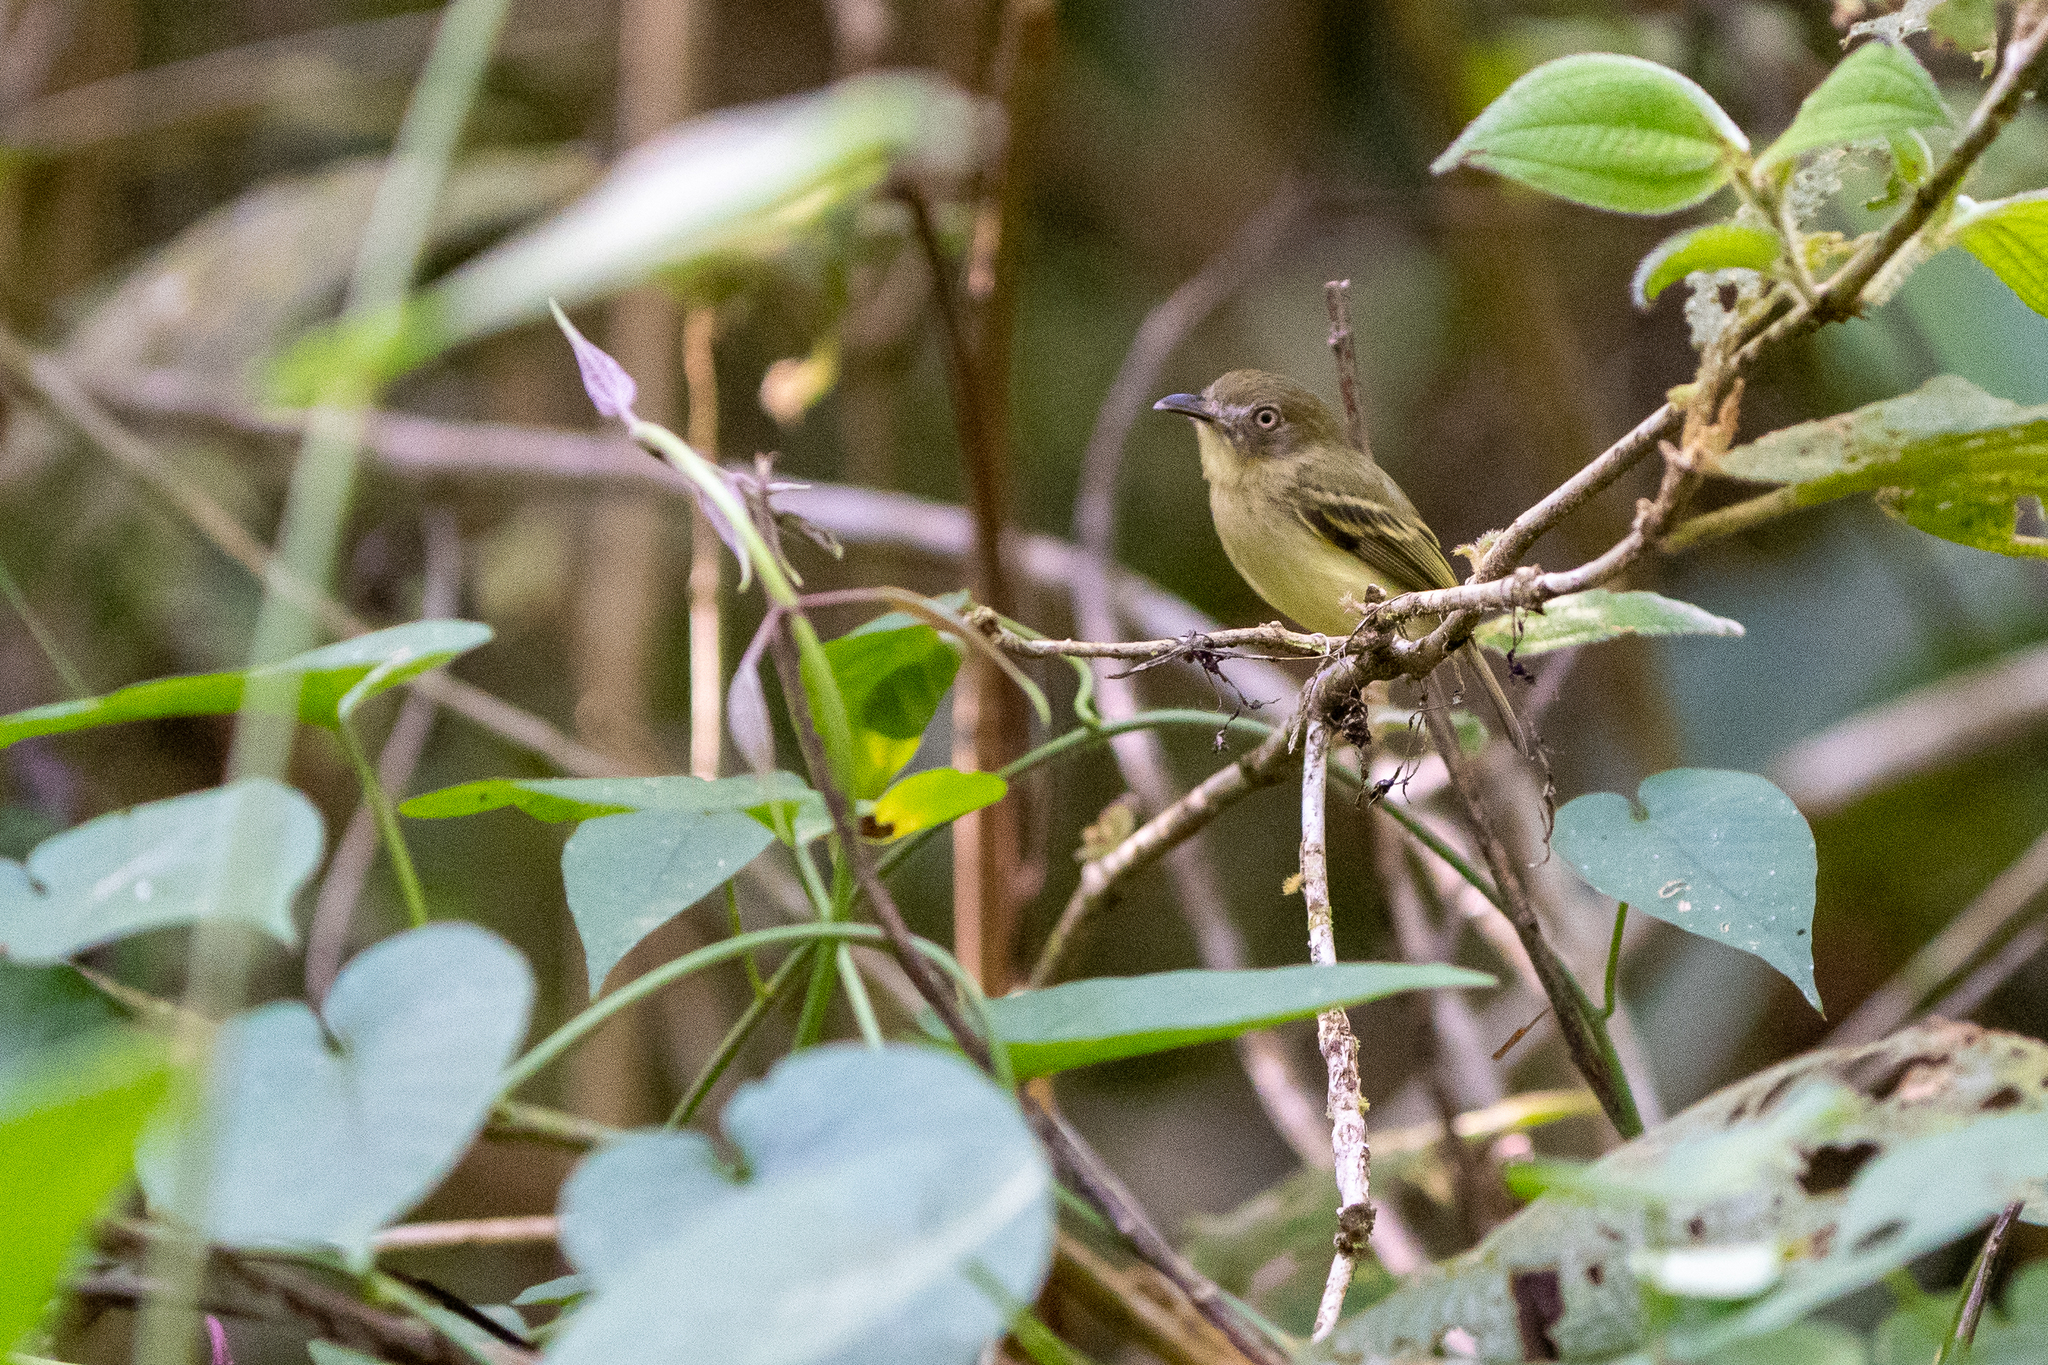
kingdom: Animalia
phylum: Chordata
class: Aves
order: Passeriformes
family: Tyrannidae
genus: Oncostoma
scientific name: Oncostoma olivaceum
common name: Southern bentbill
